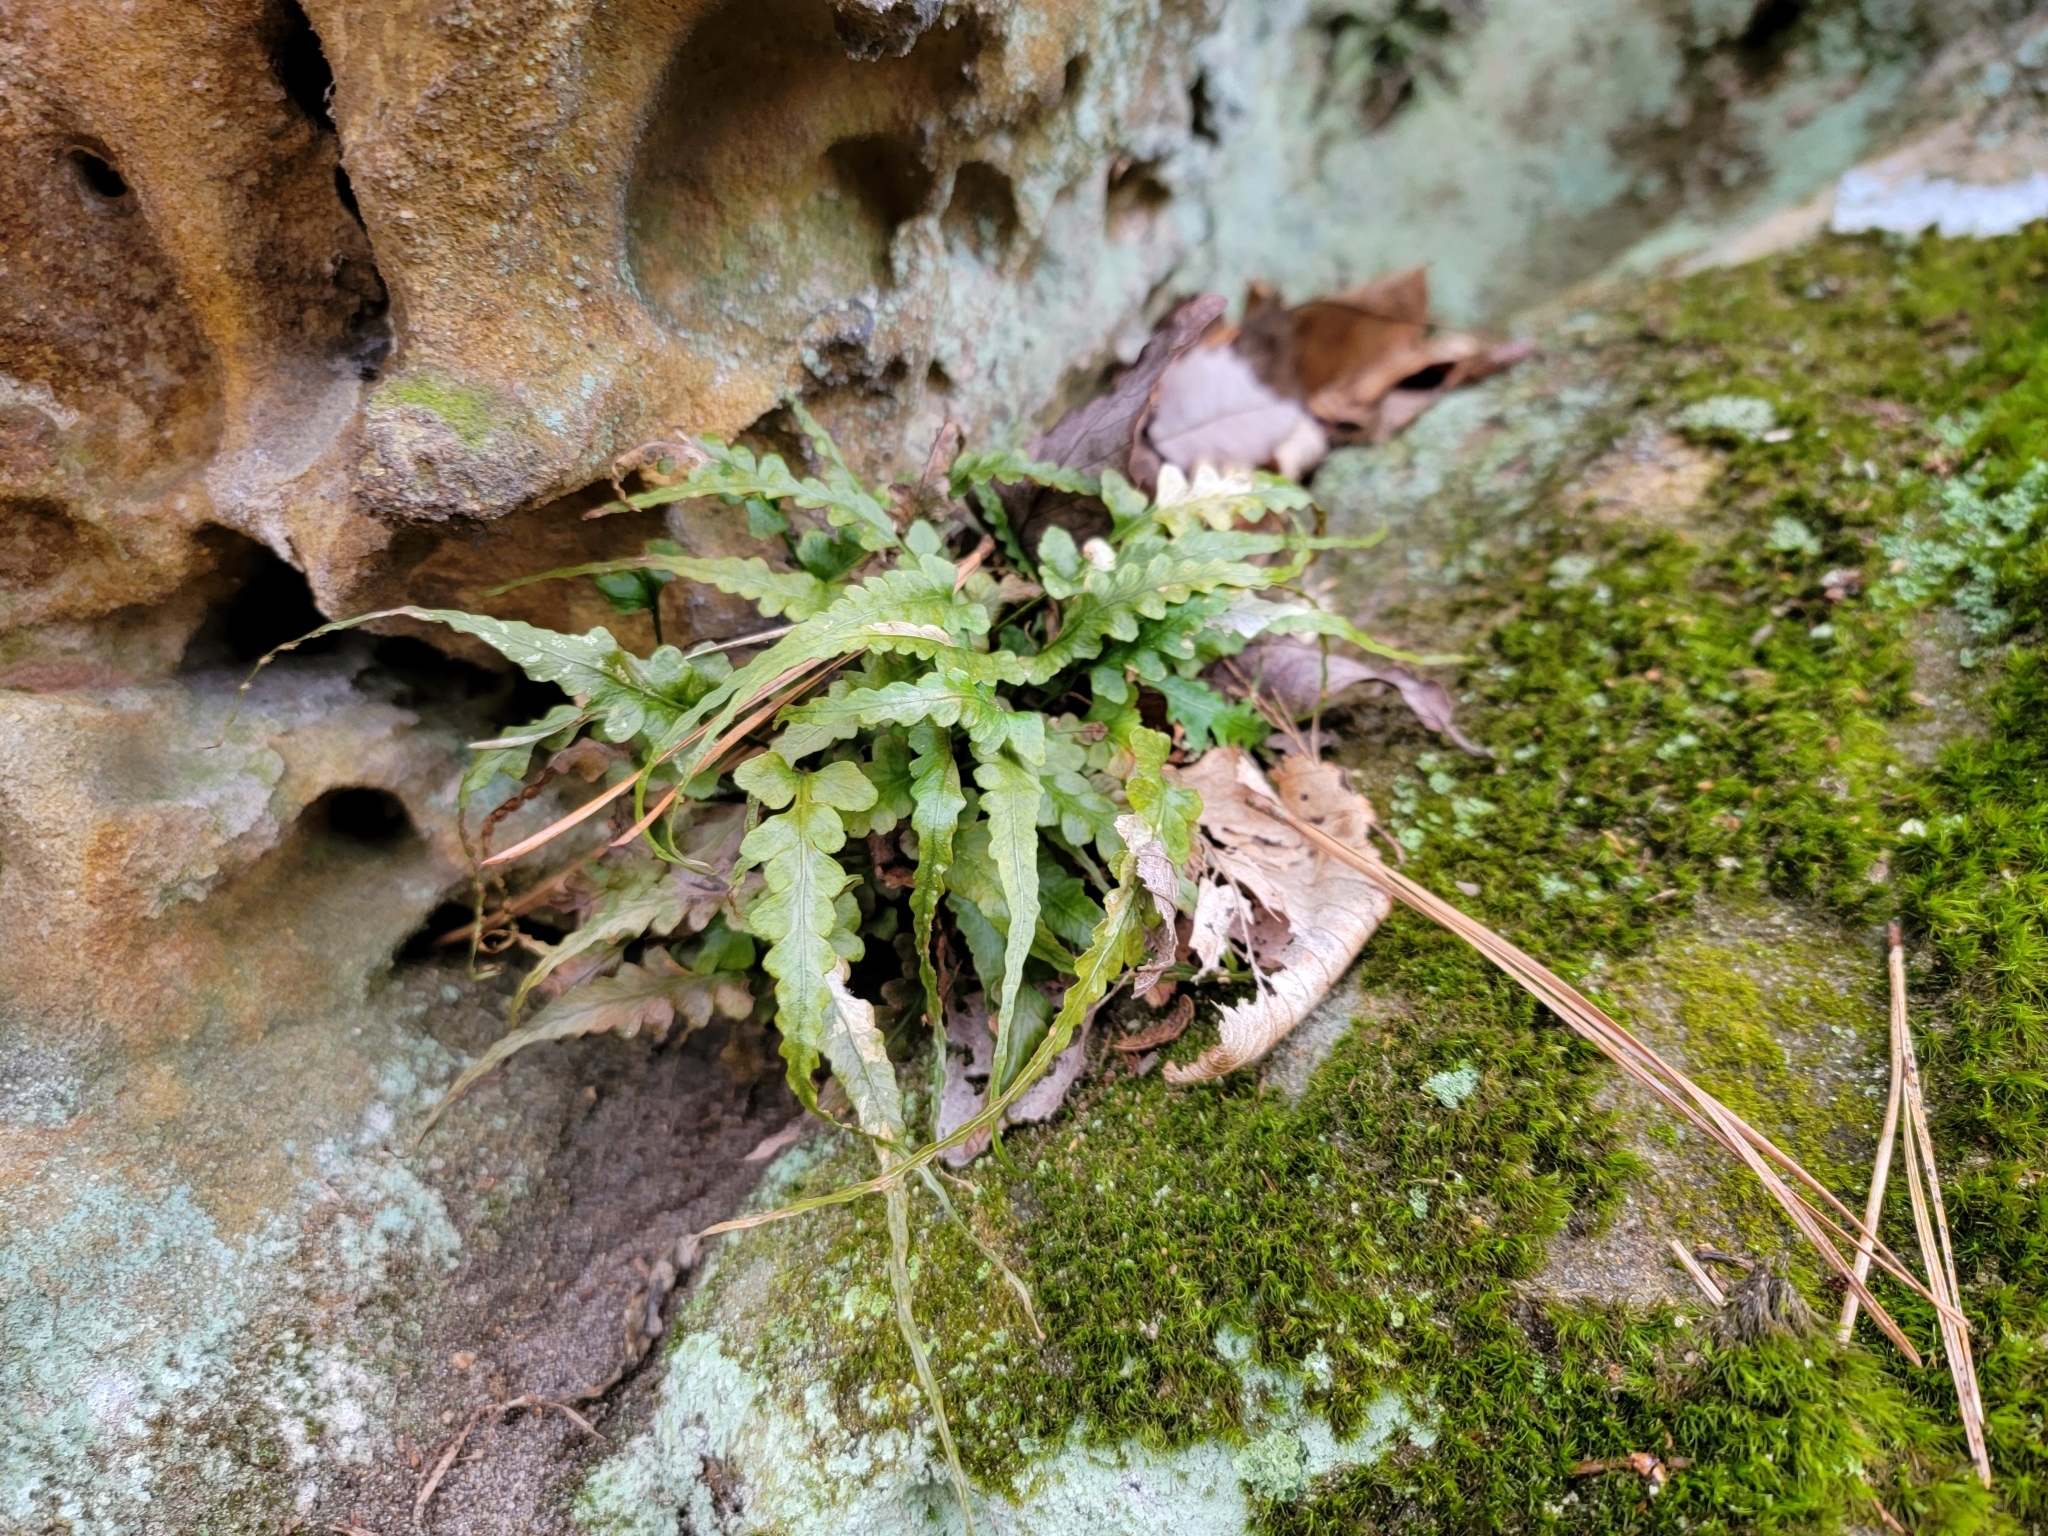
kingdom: Plantae
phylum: Tracheophyta
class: Polypodiopsida
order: Polypodiales
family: Aspleniaceae
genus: Asplenium
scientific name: Asplenium pinnatifidum
